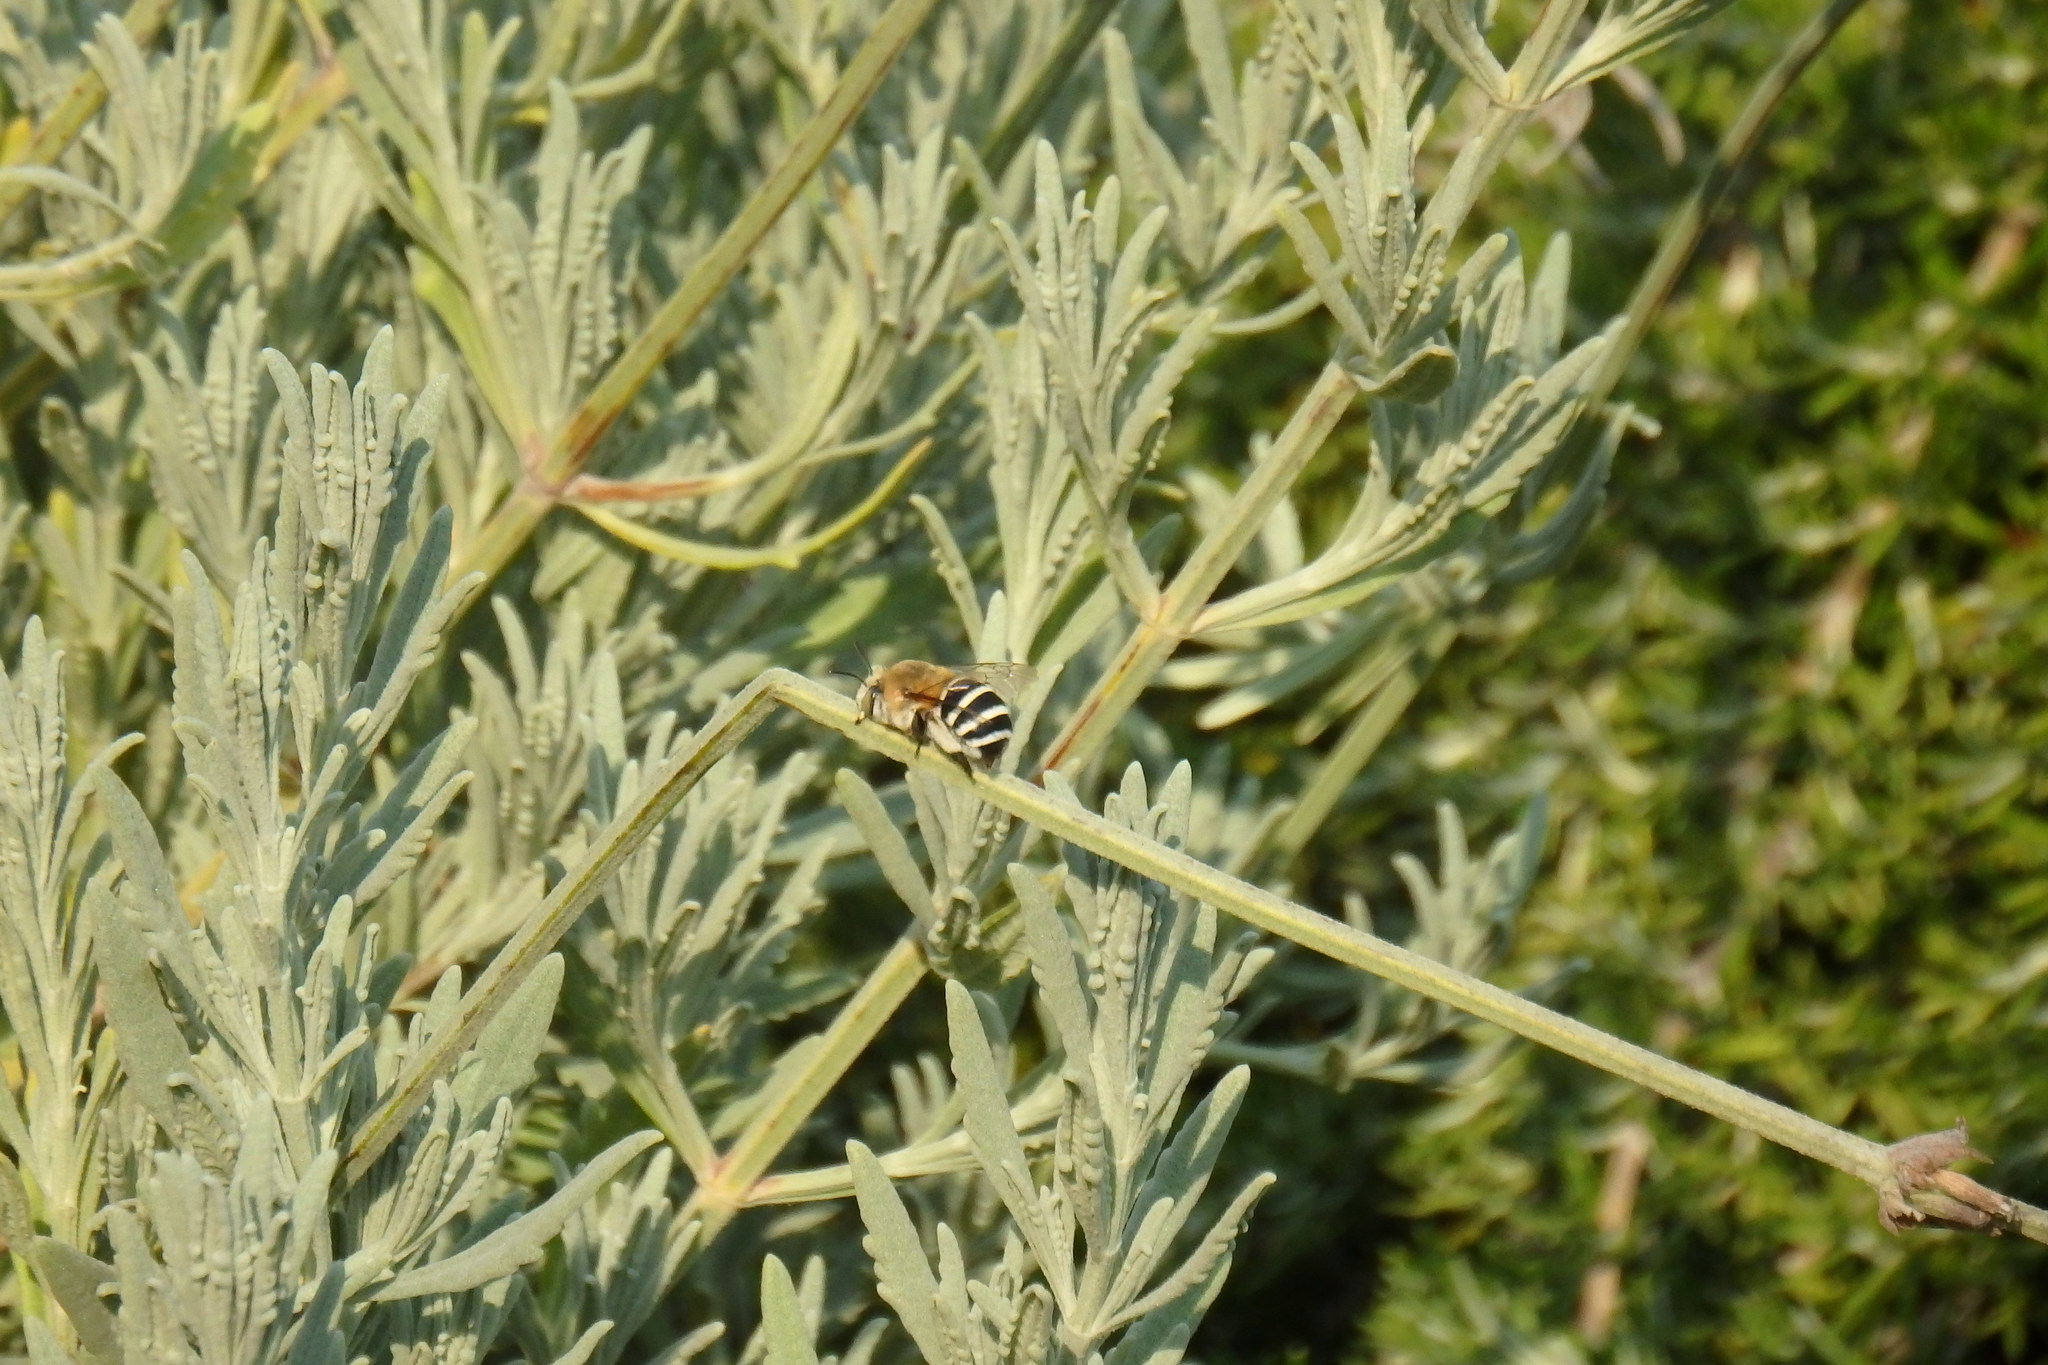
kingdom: Animalia
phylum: Arthropoda
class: Insecta
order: Hymenoptera
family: Apidae
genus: Amegilla
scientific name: Amegilla quadrifasciata
